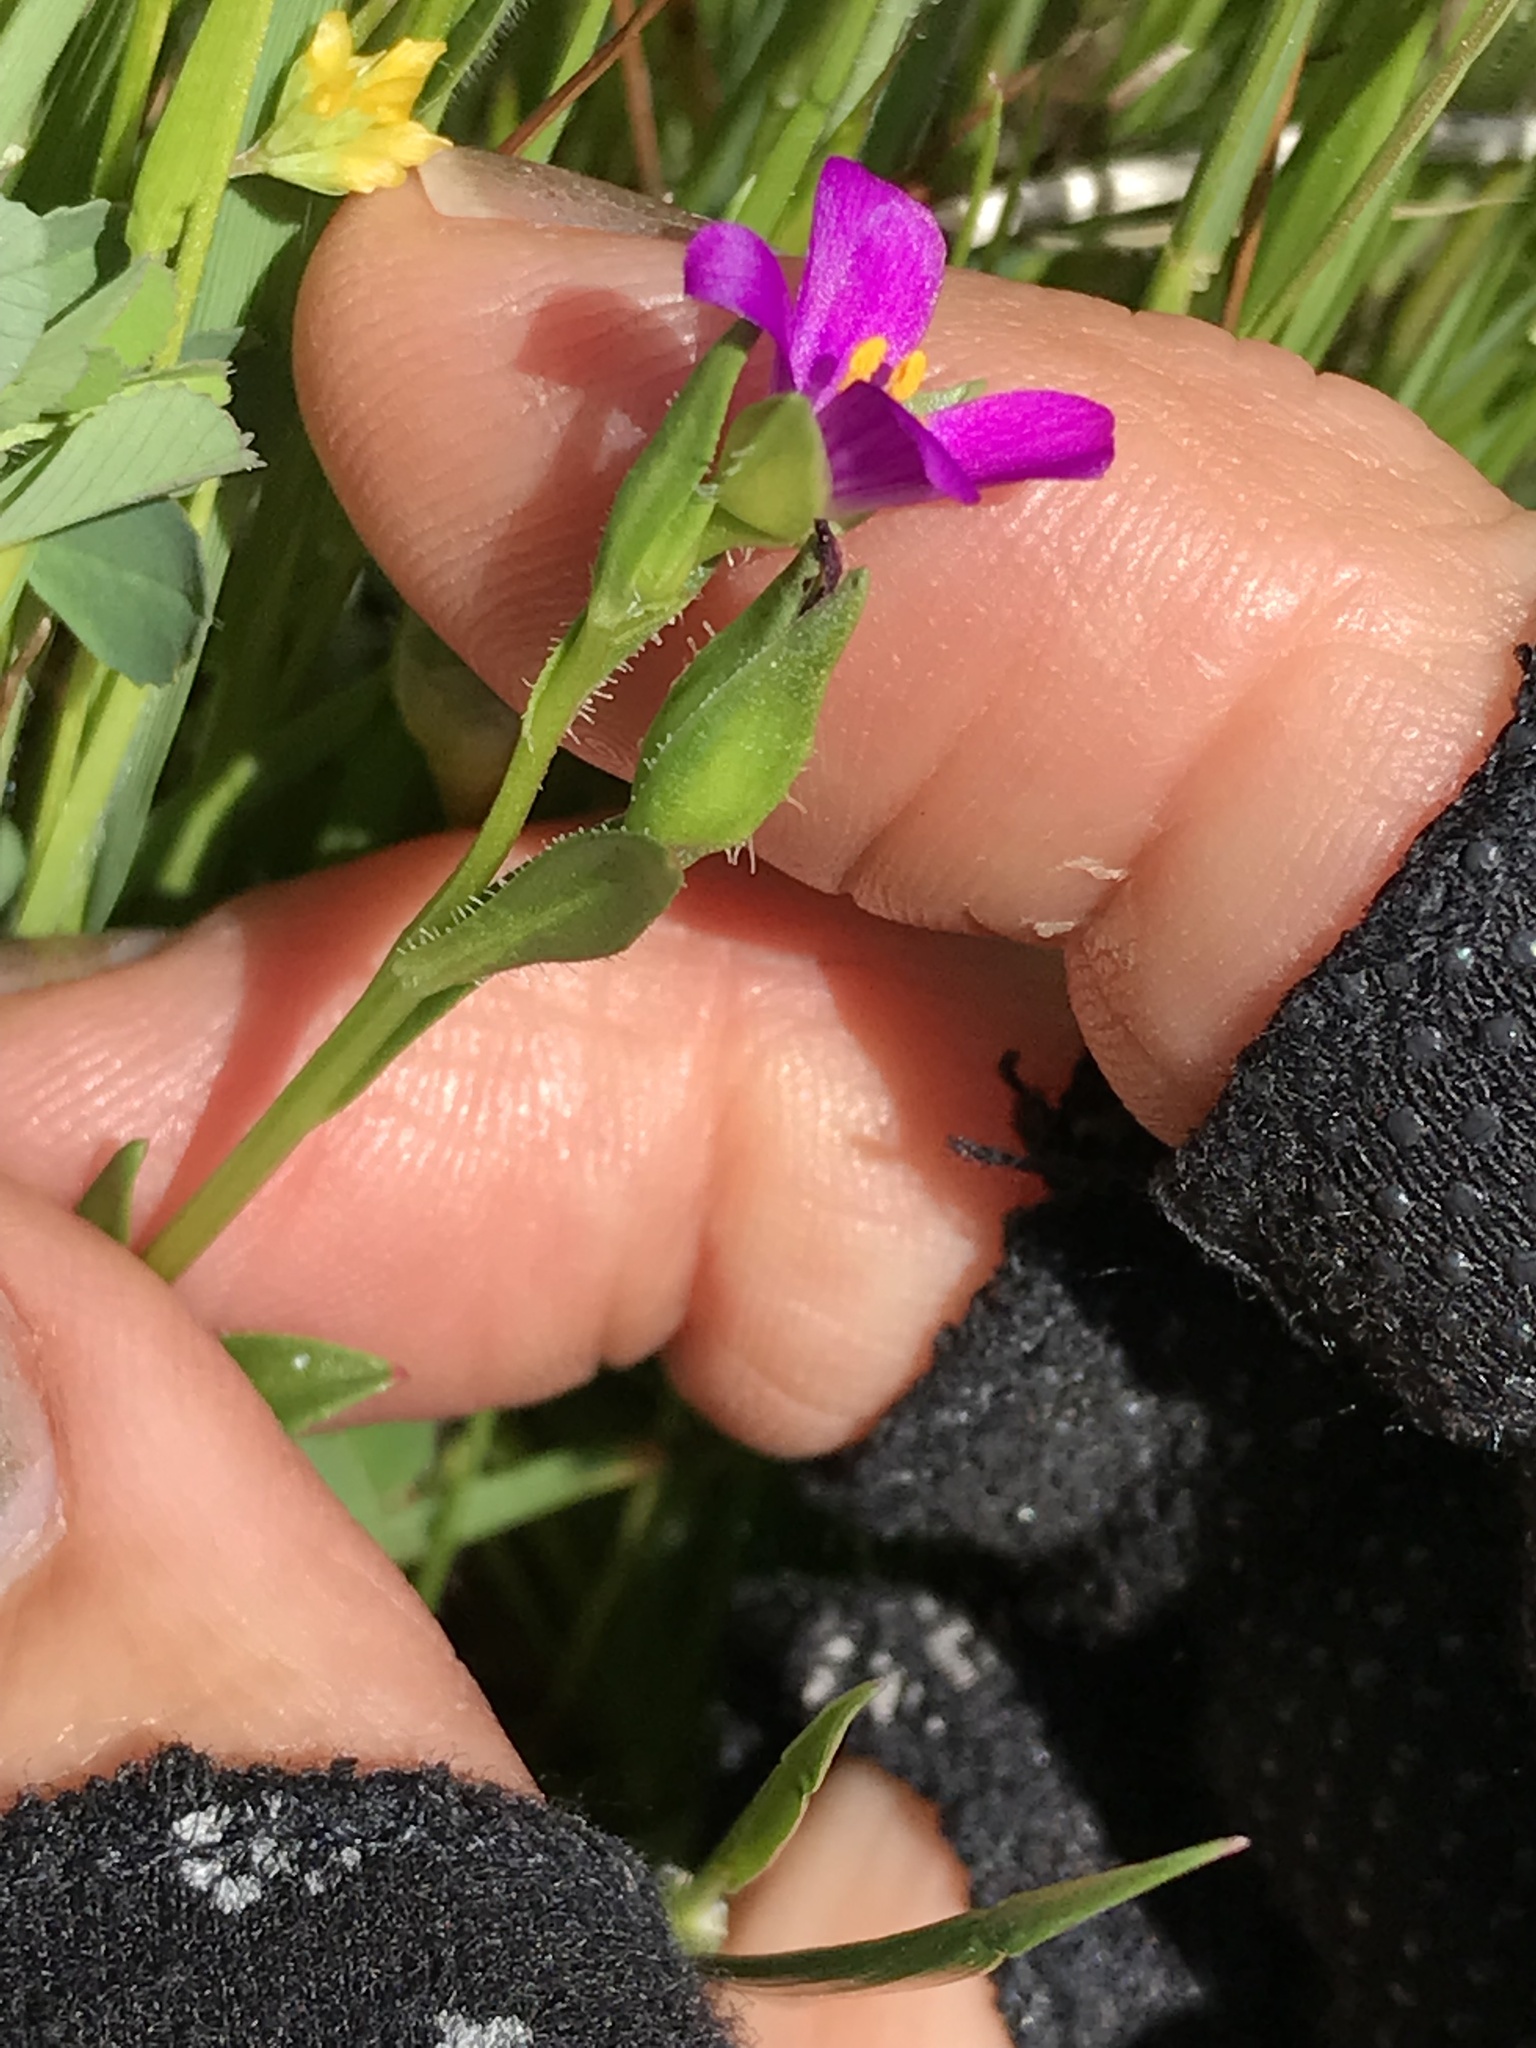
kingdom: Plantae
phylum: Tracheophyta
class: Magnoliopsida
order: Caryophyllales
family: Montiaceae
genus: Calandrinia
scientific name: Calandrinia menziesii
